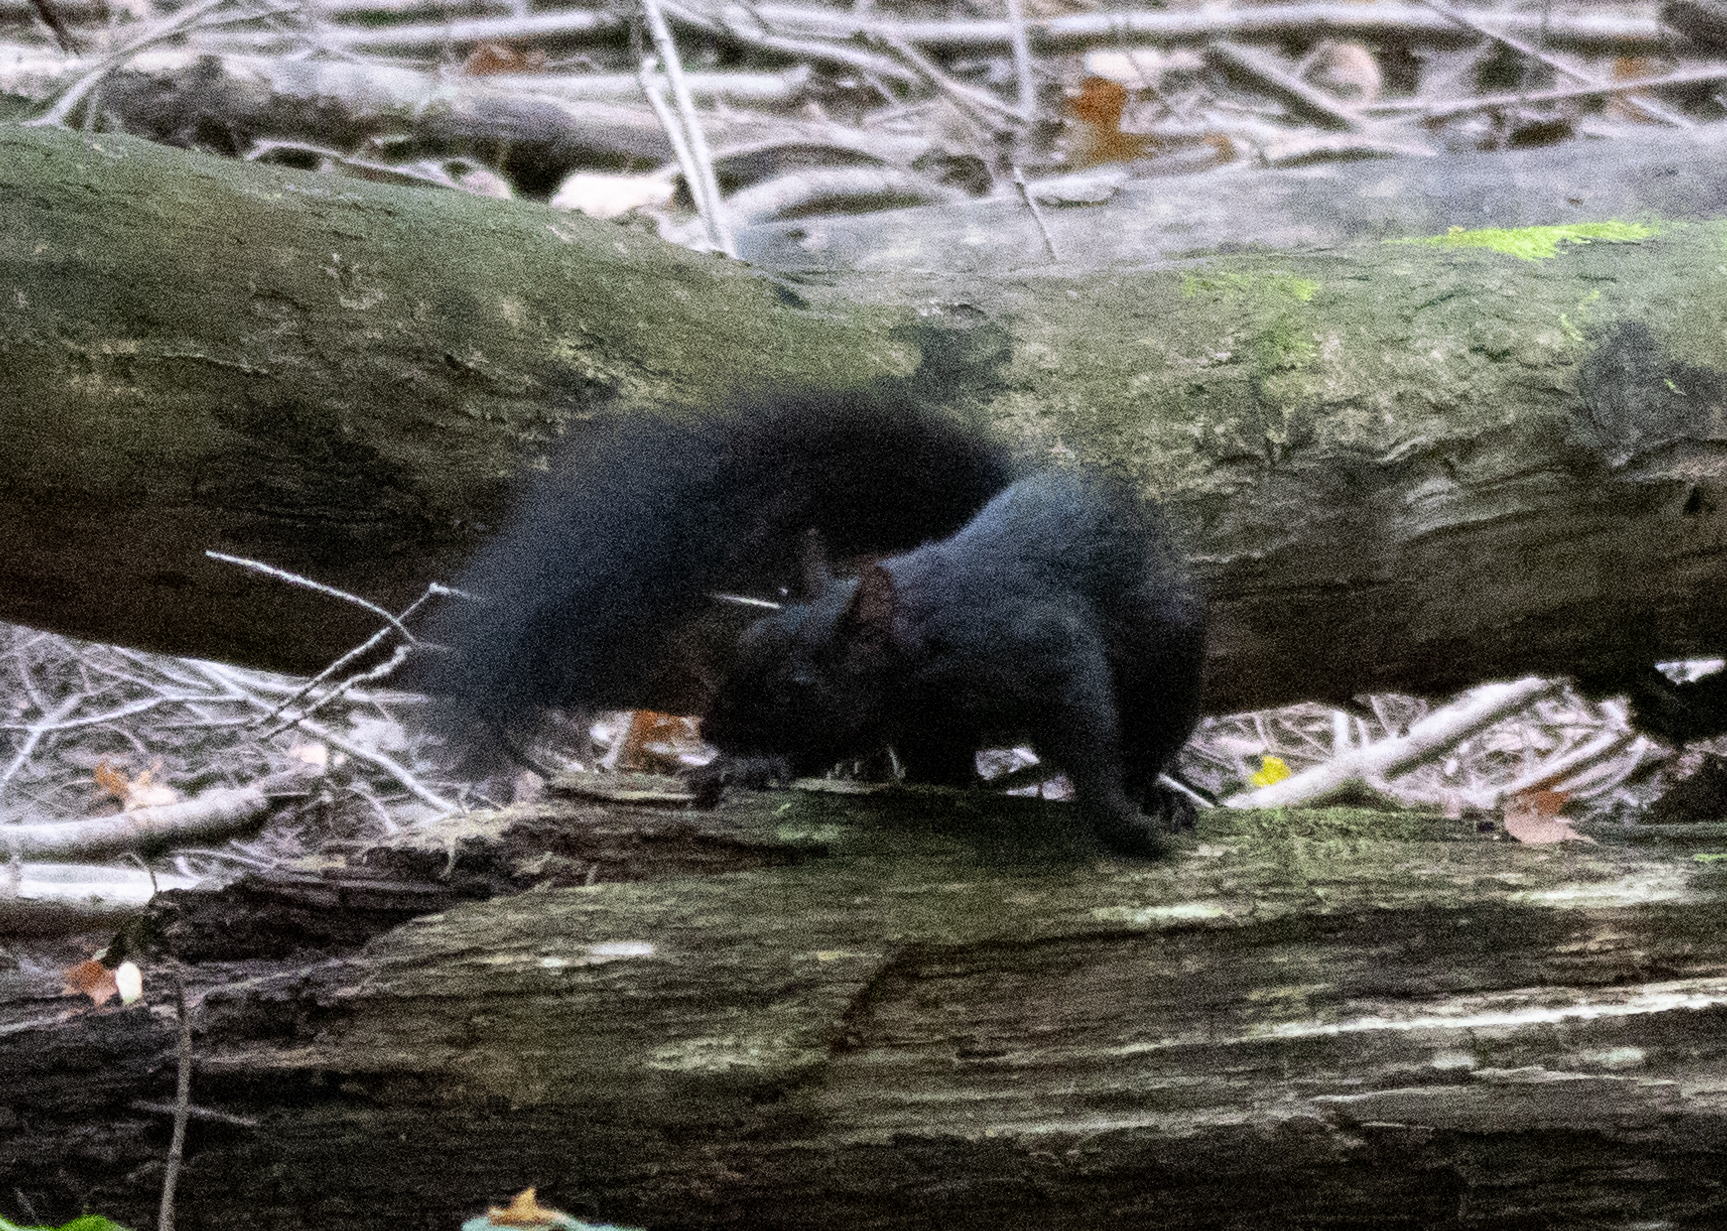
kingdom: Animalia
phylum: Chordata
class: Mammalia
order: Rodentia
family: Sciuridae
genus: Sciurus
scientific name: Sciurus carolinensis
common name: Eastern gray squirrel
